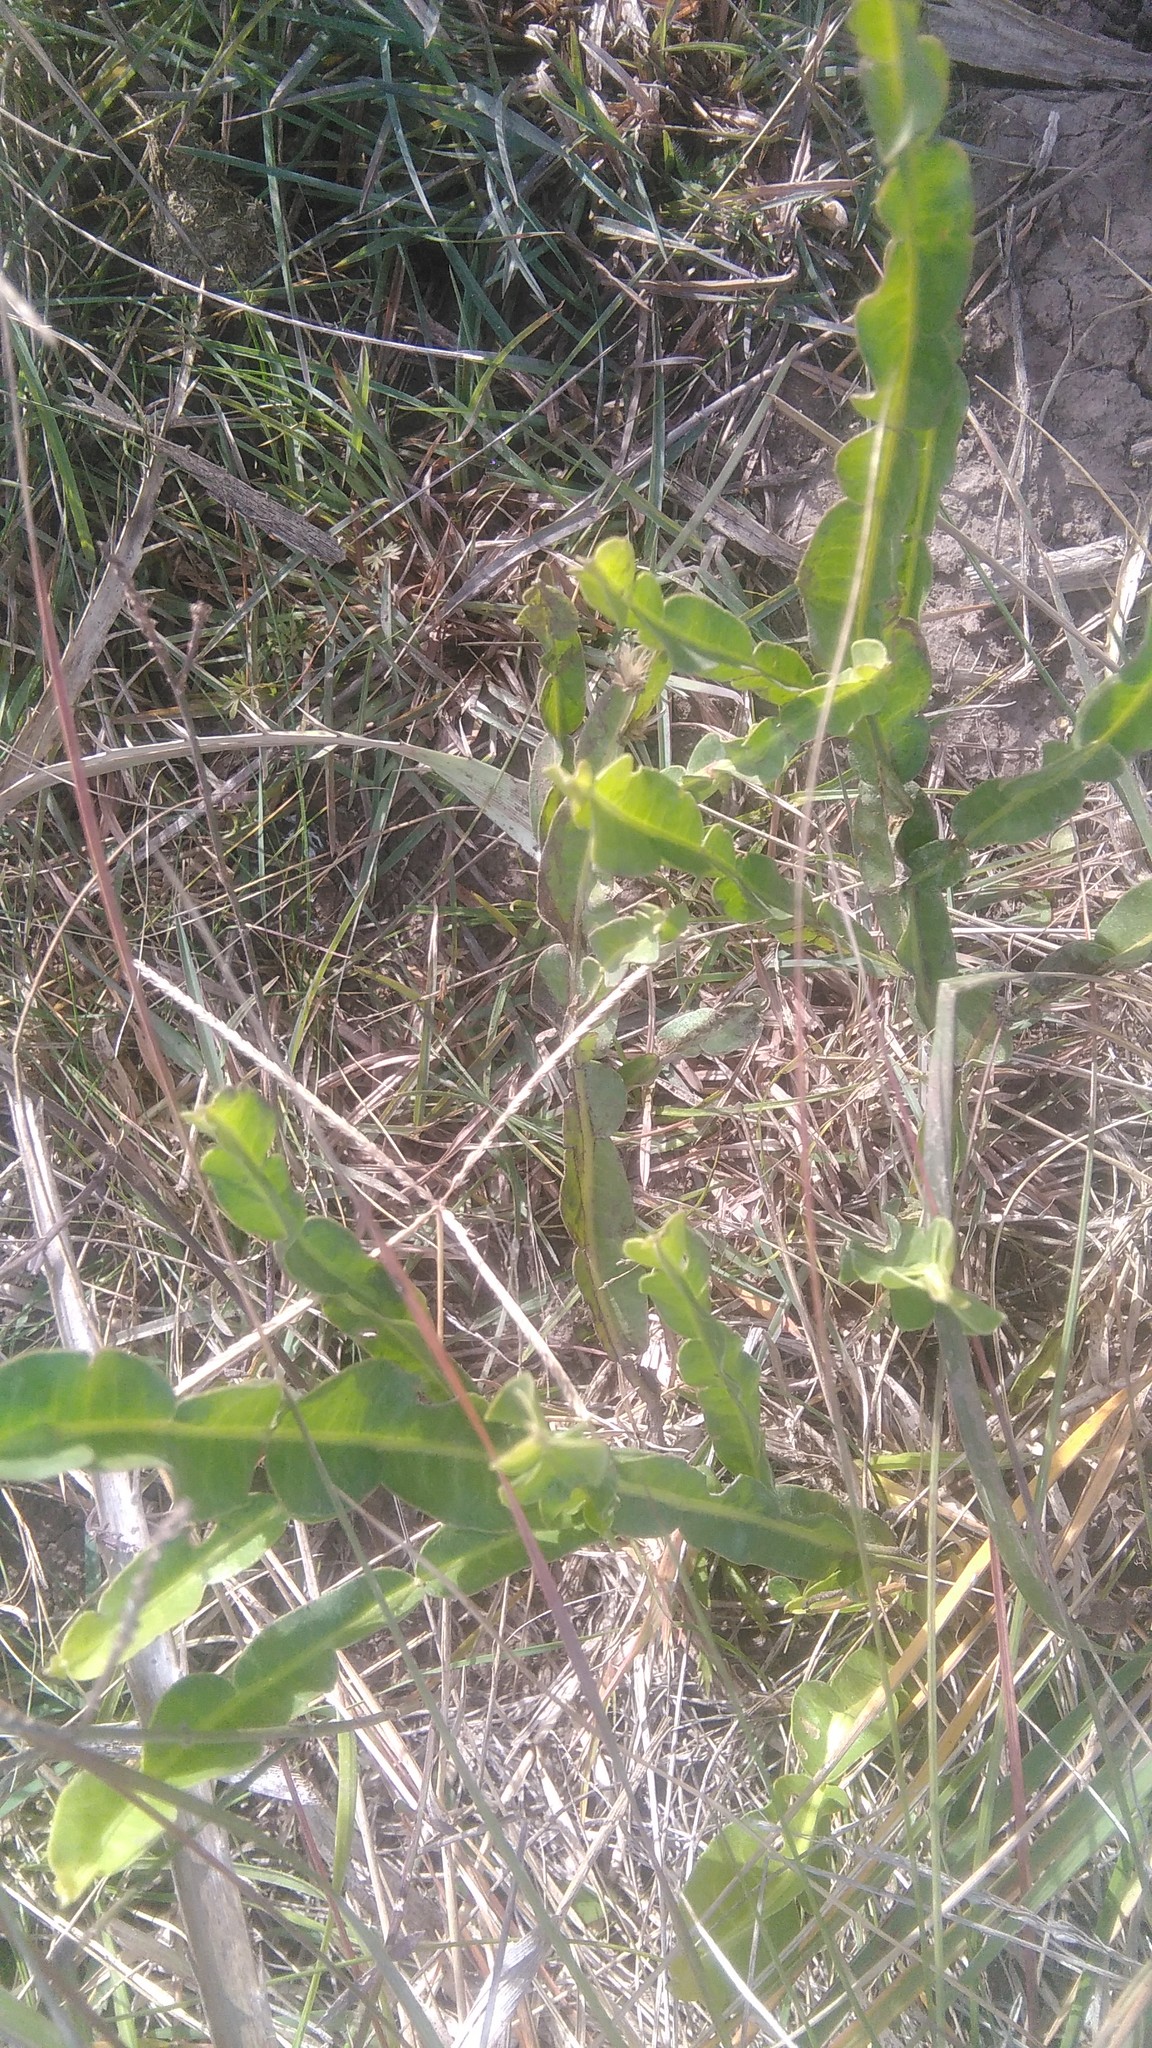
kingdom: Plantae
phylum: Tracheophyta
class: Magnoliopsida
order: Asterales
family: Asteraceae
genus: Baccharis
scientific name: Baccharis trimera
